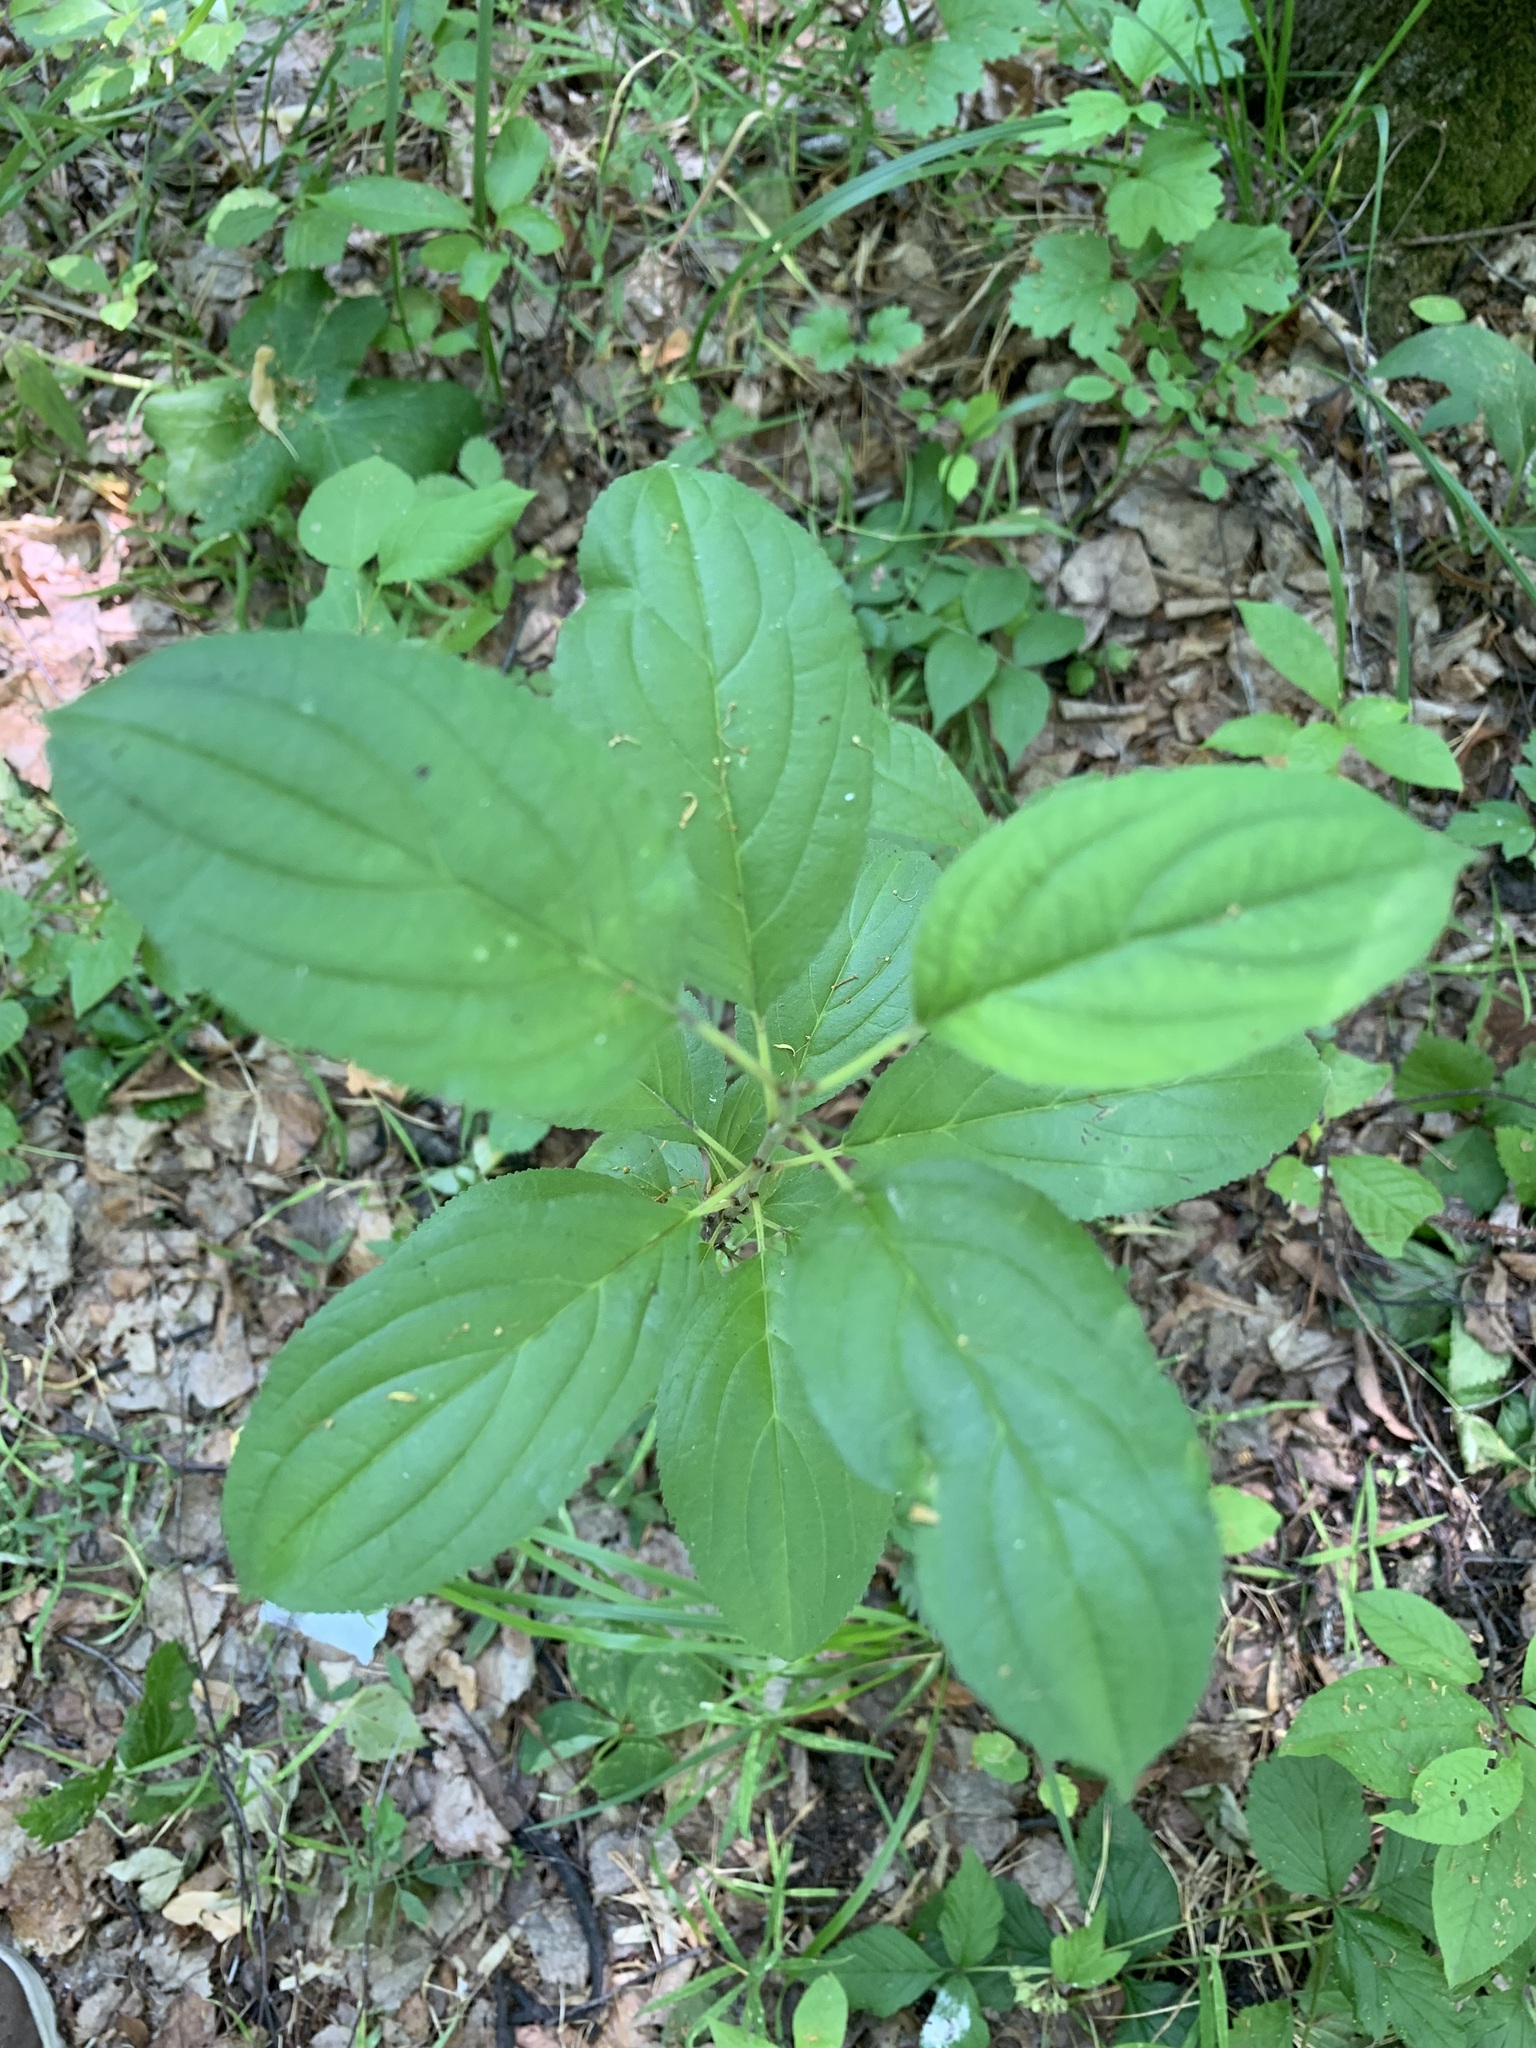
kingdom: Plantae
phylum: Tracheophyta
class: Magnoliopsida
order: Rosales
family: Rhamnaceae
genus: Rhamnus
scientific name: Rhamnus cathartica
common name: Common buckthorn
